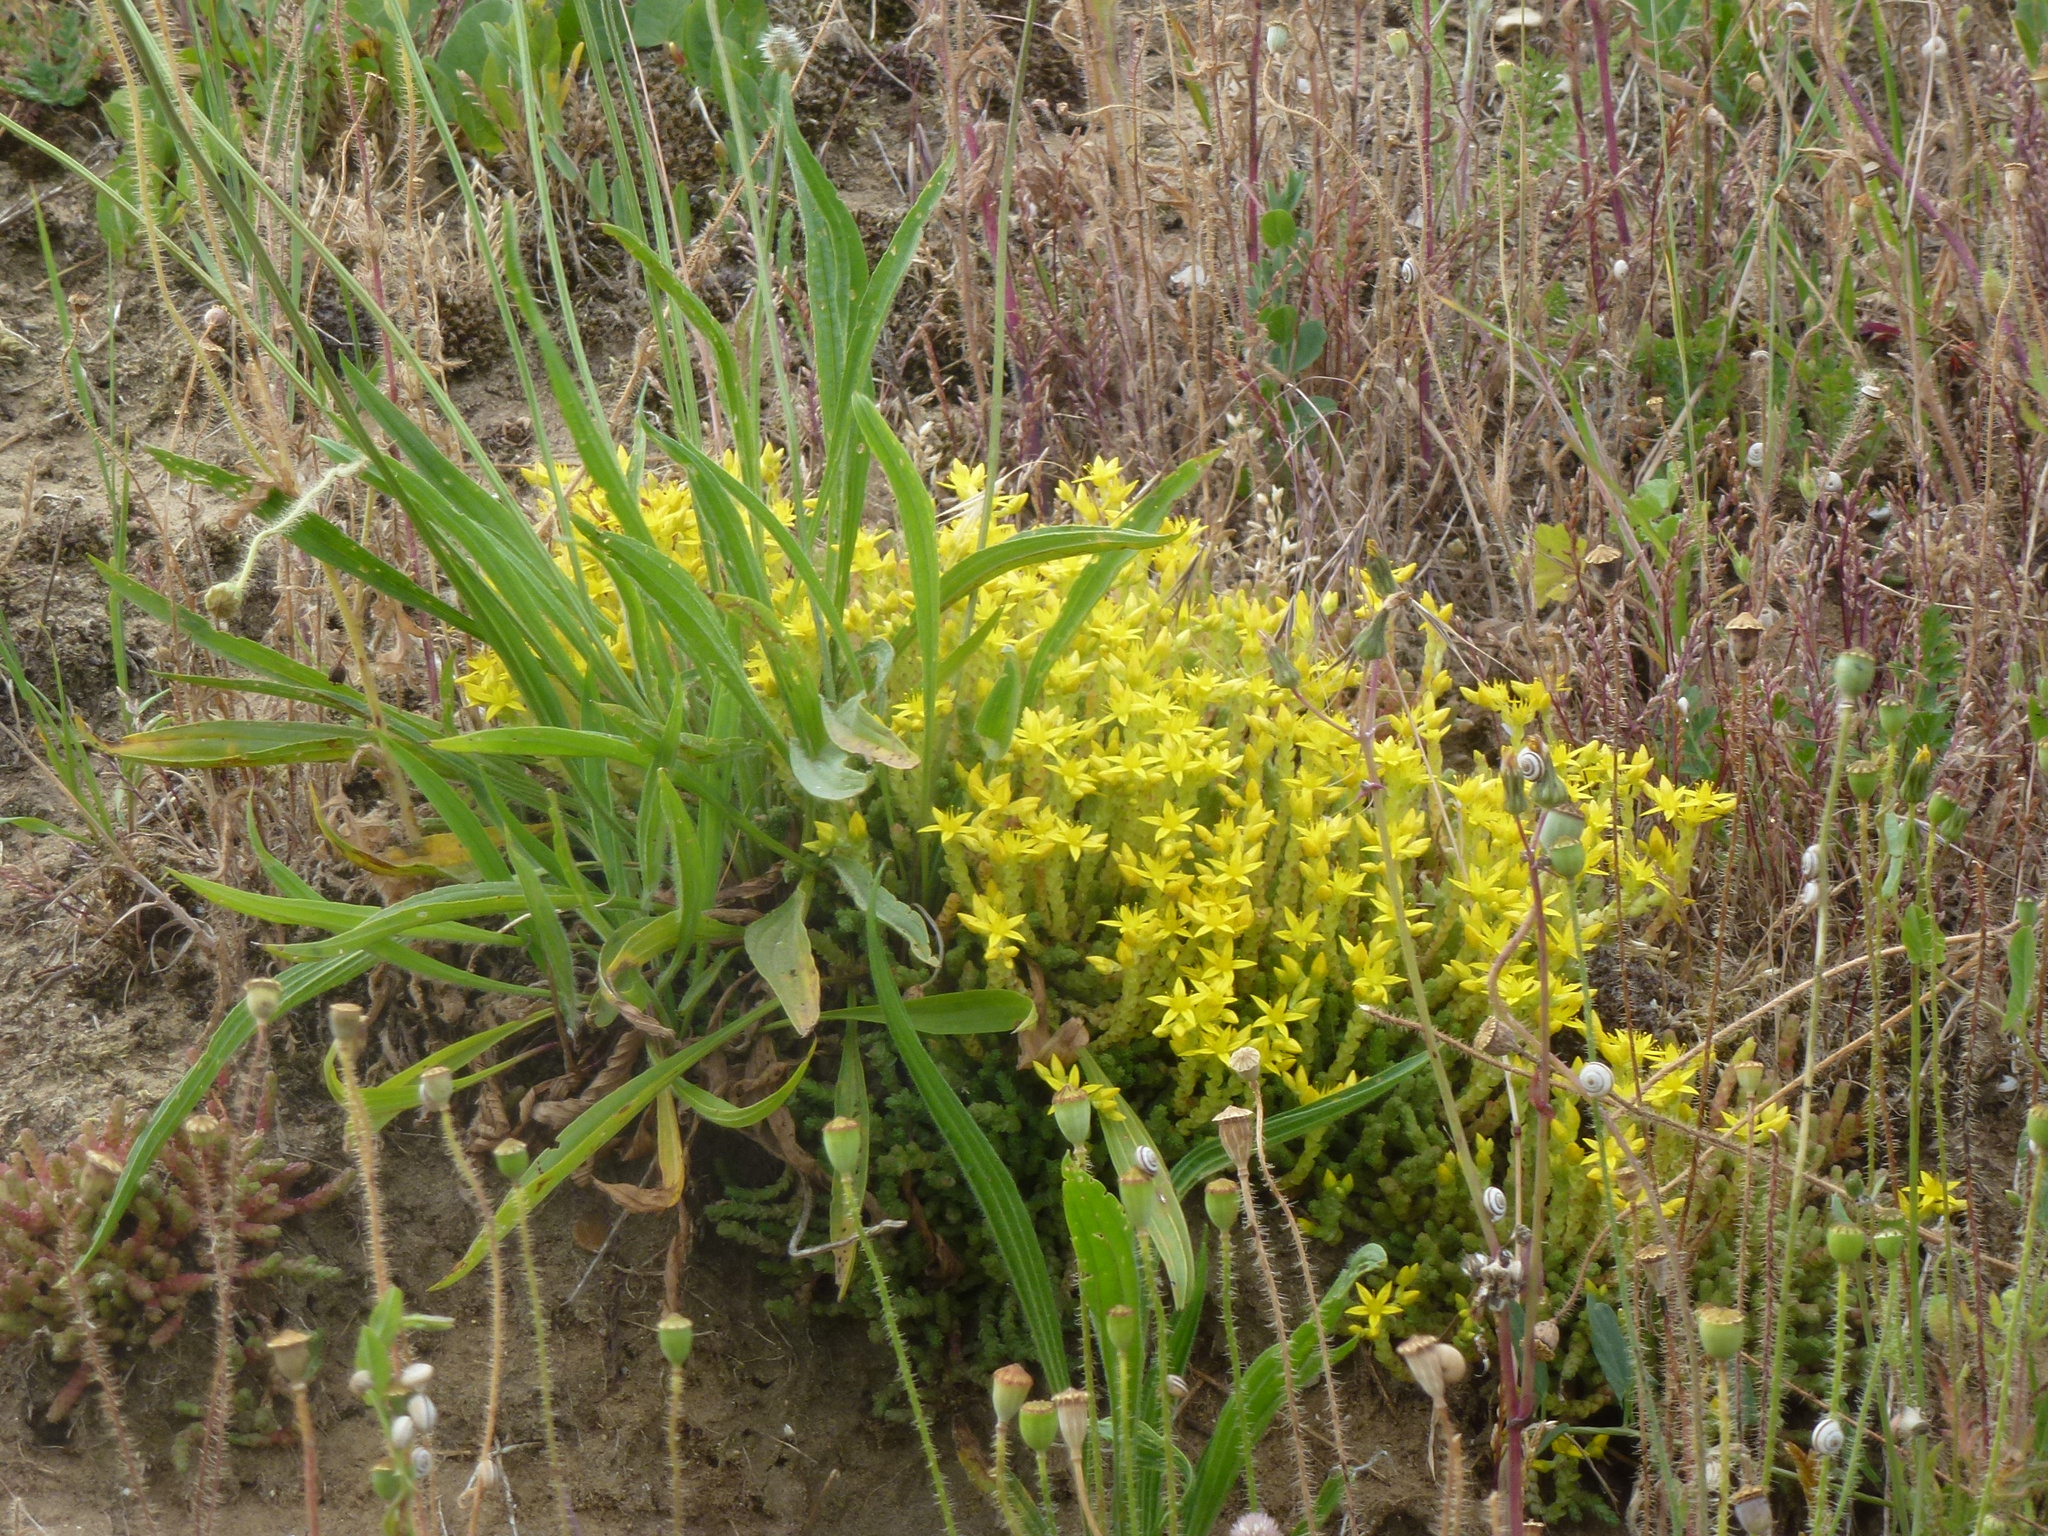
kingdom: Plantae
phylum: Tracheophyta
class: Magnoliopsida
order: Saxifragales
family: Crassulaceae
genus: Sedum
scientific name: Sedum acre
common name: Biting stonecrop
